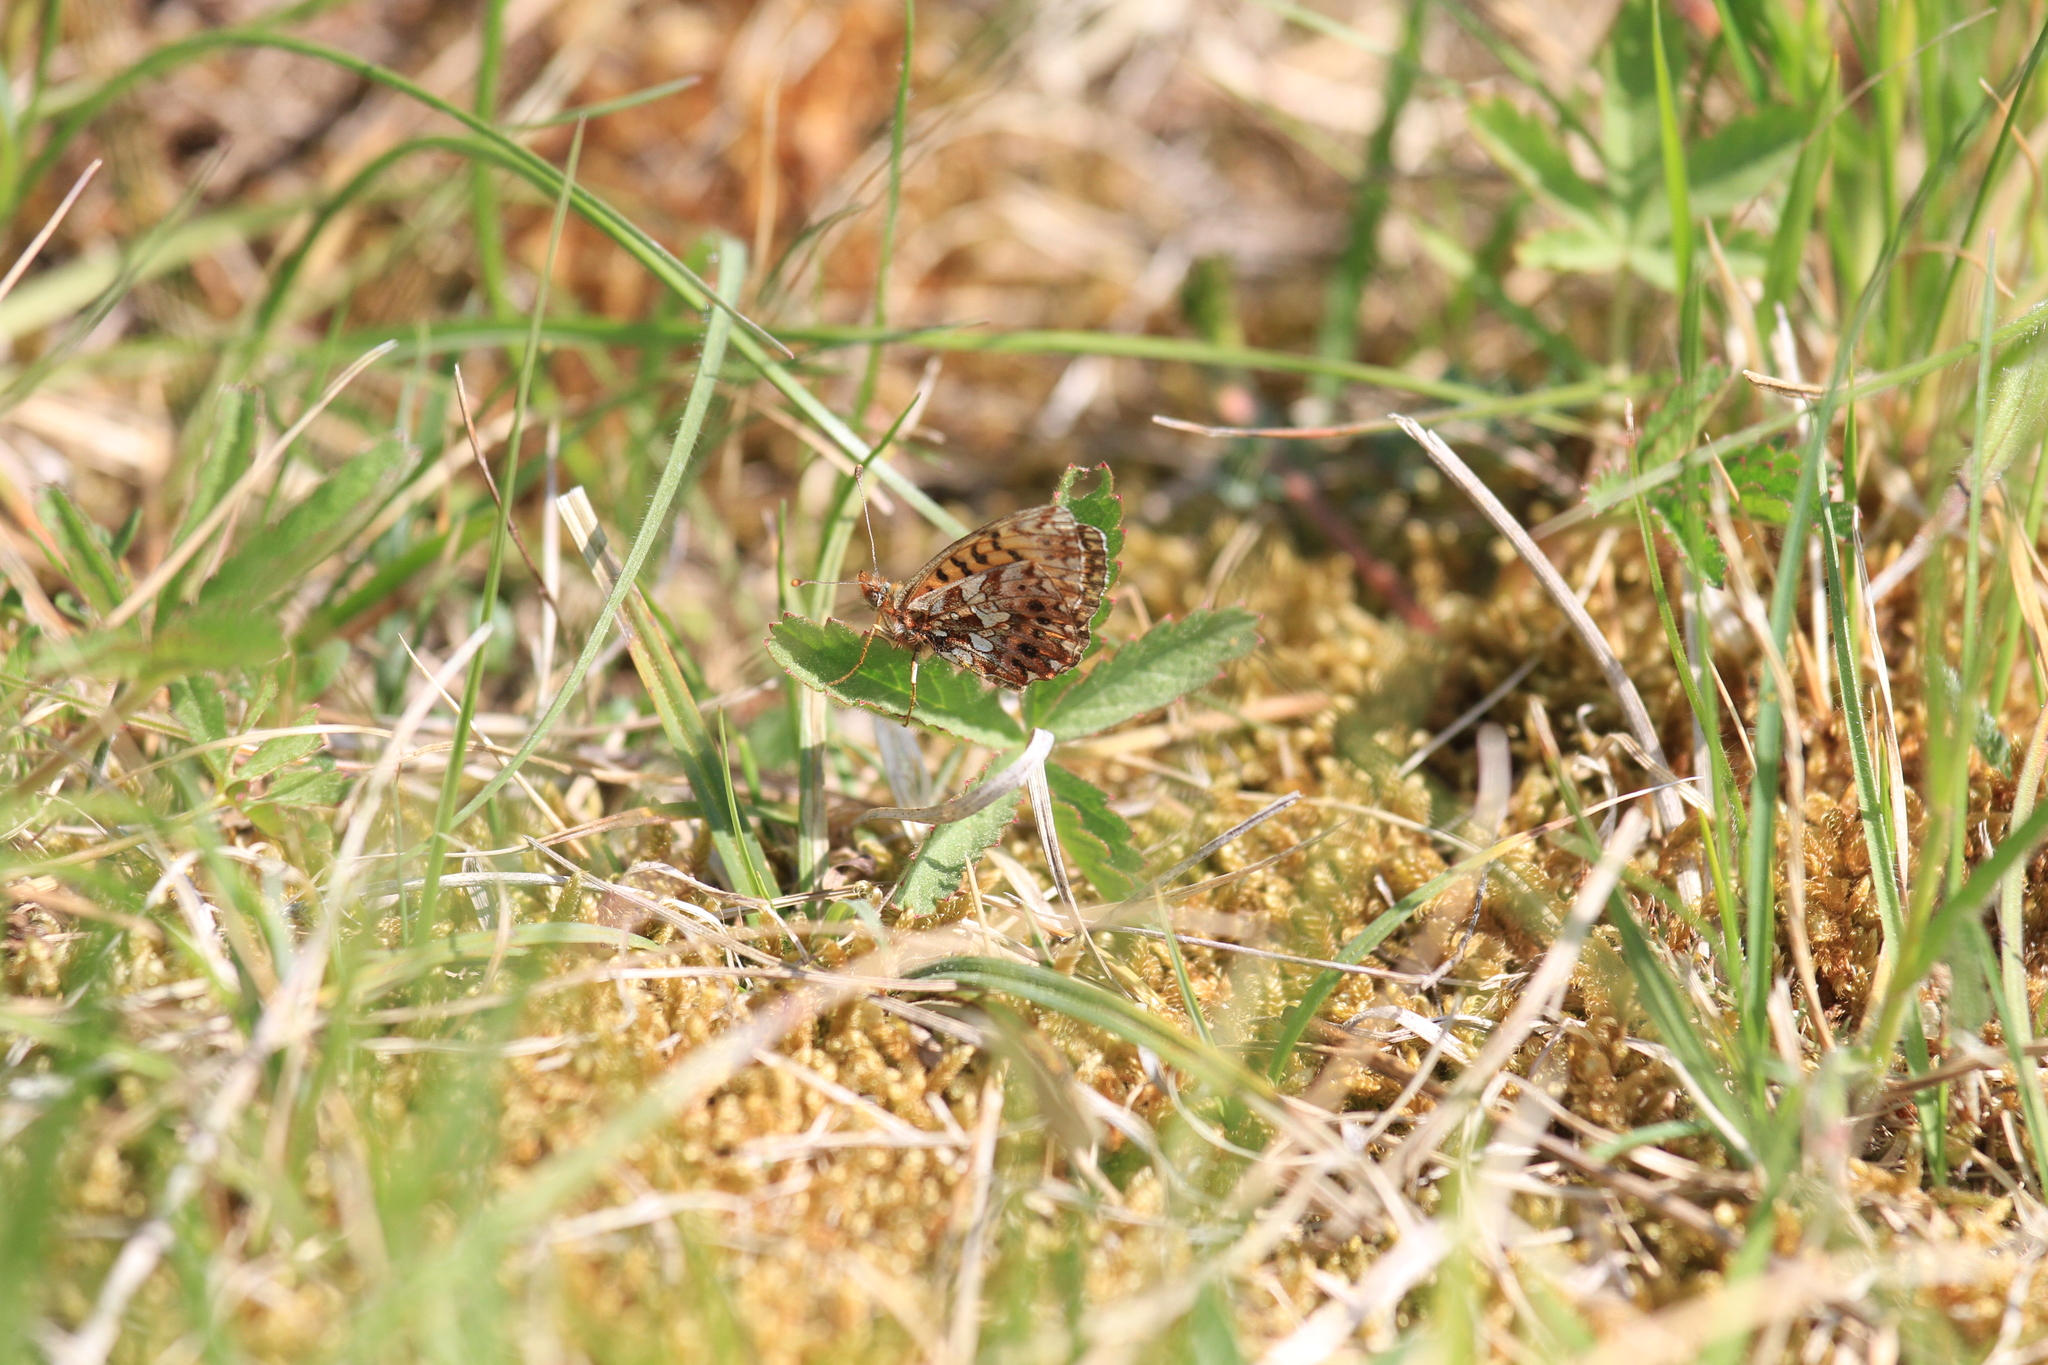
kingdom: Animalia
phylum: Arthropoda
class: Insecta
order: Lepidoptera
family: Nymphalidae
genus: Boloria
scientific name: Boloria dia
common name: Weaver's fritillary
